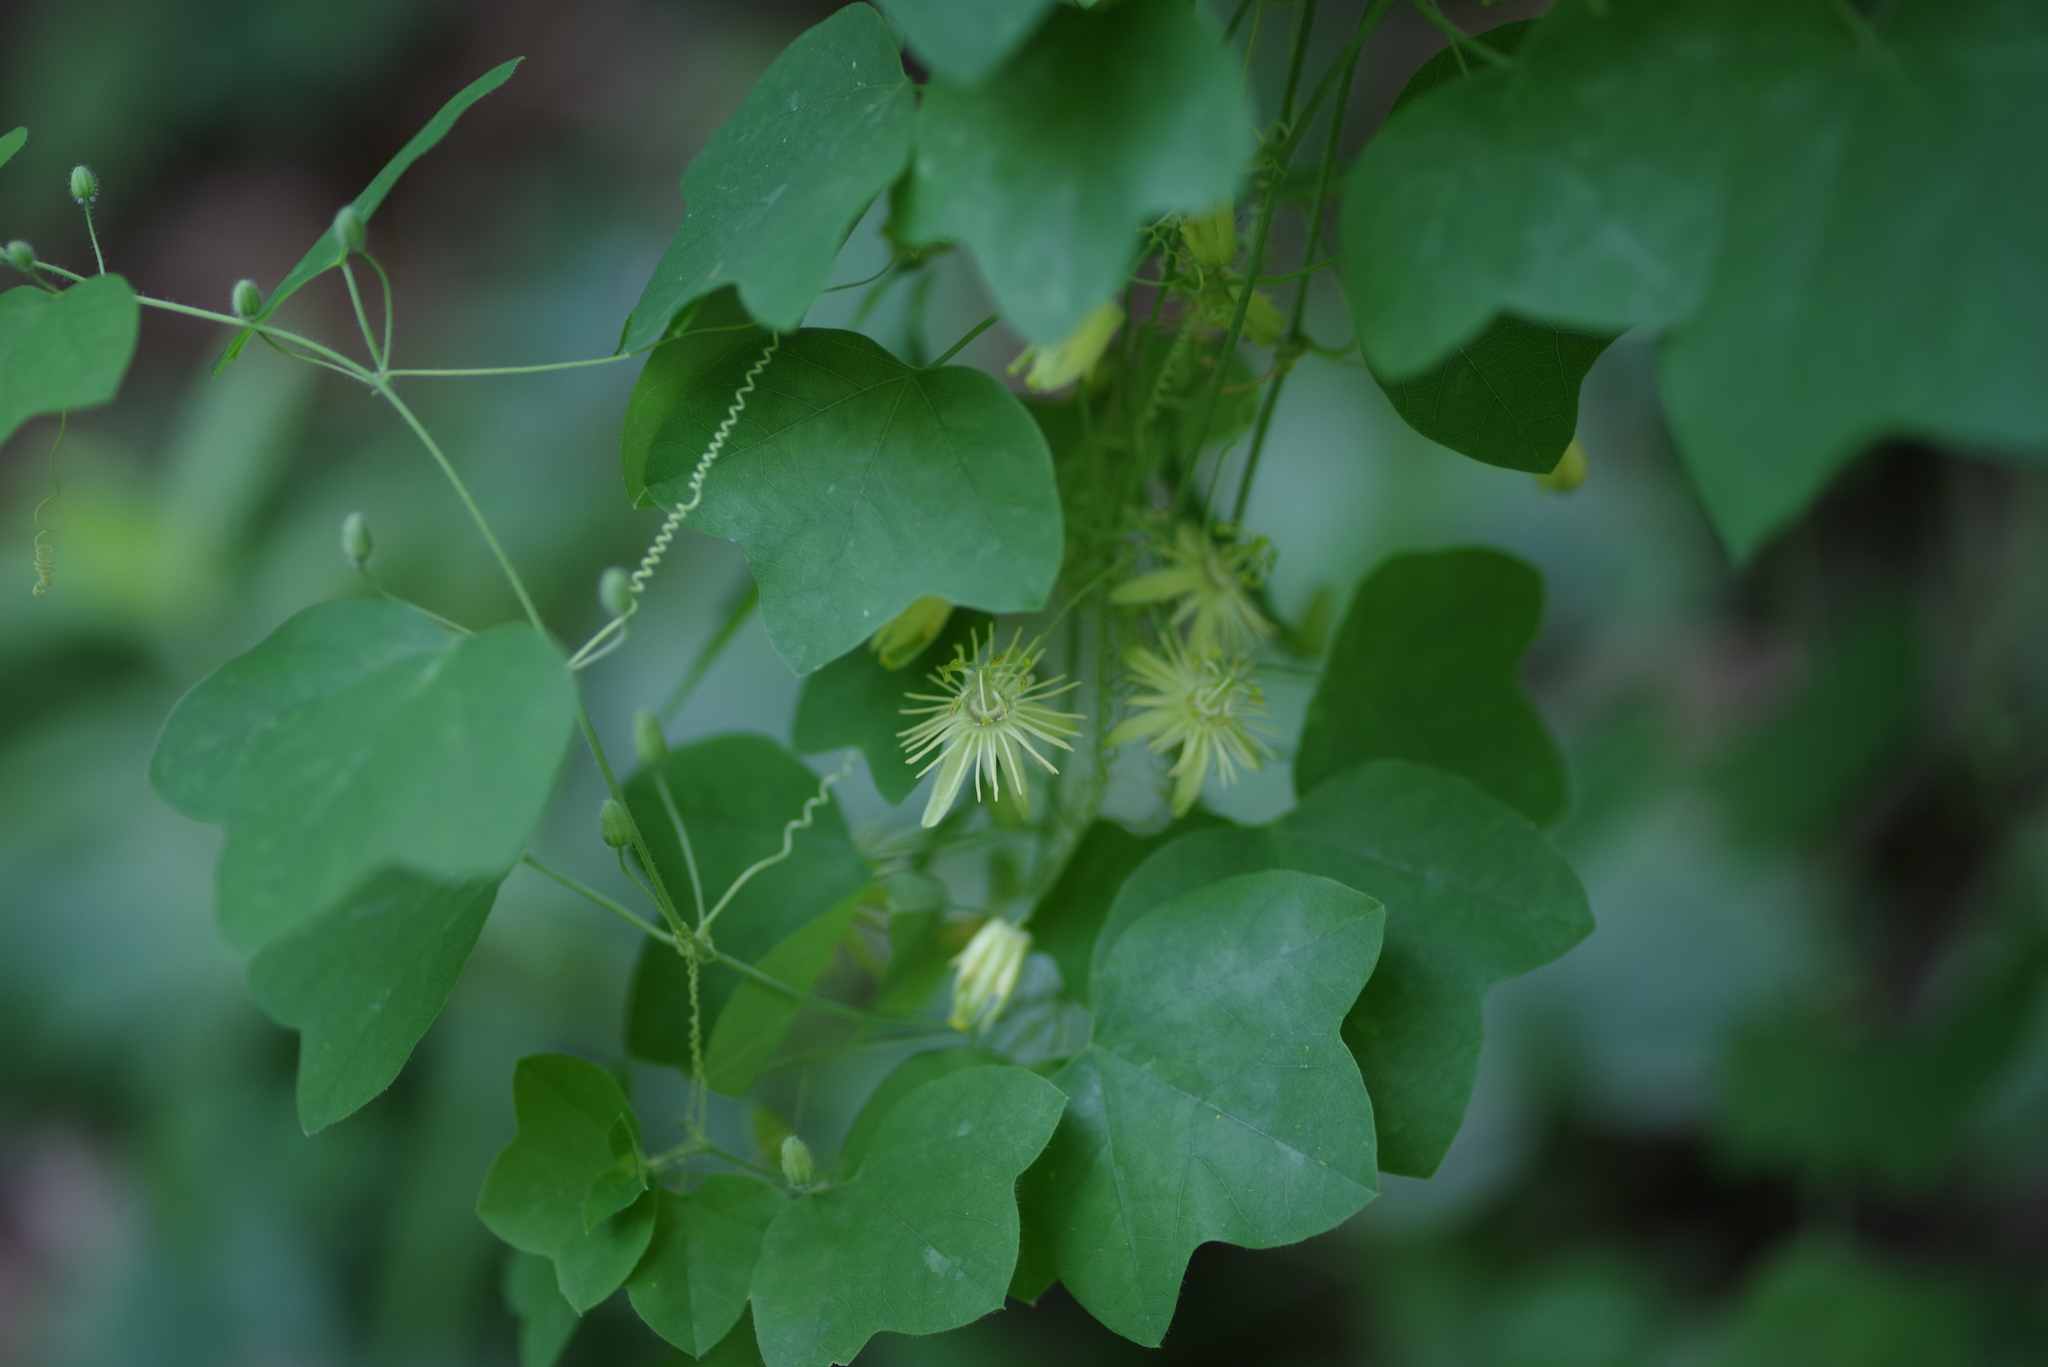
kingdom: Plantae
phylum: Tracheophyta
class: Magnoliopsida
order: Malpighiales
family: Passifloraceae
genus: Passiflora
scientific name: Passiflora lutea
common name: Yellow passionflower
